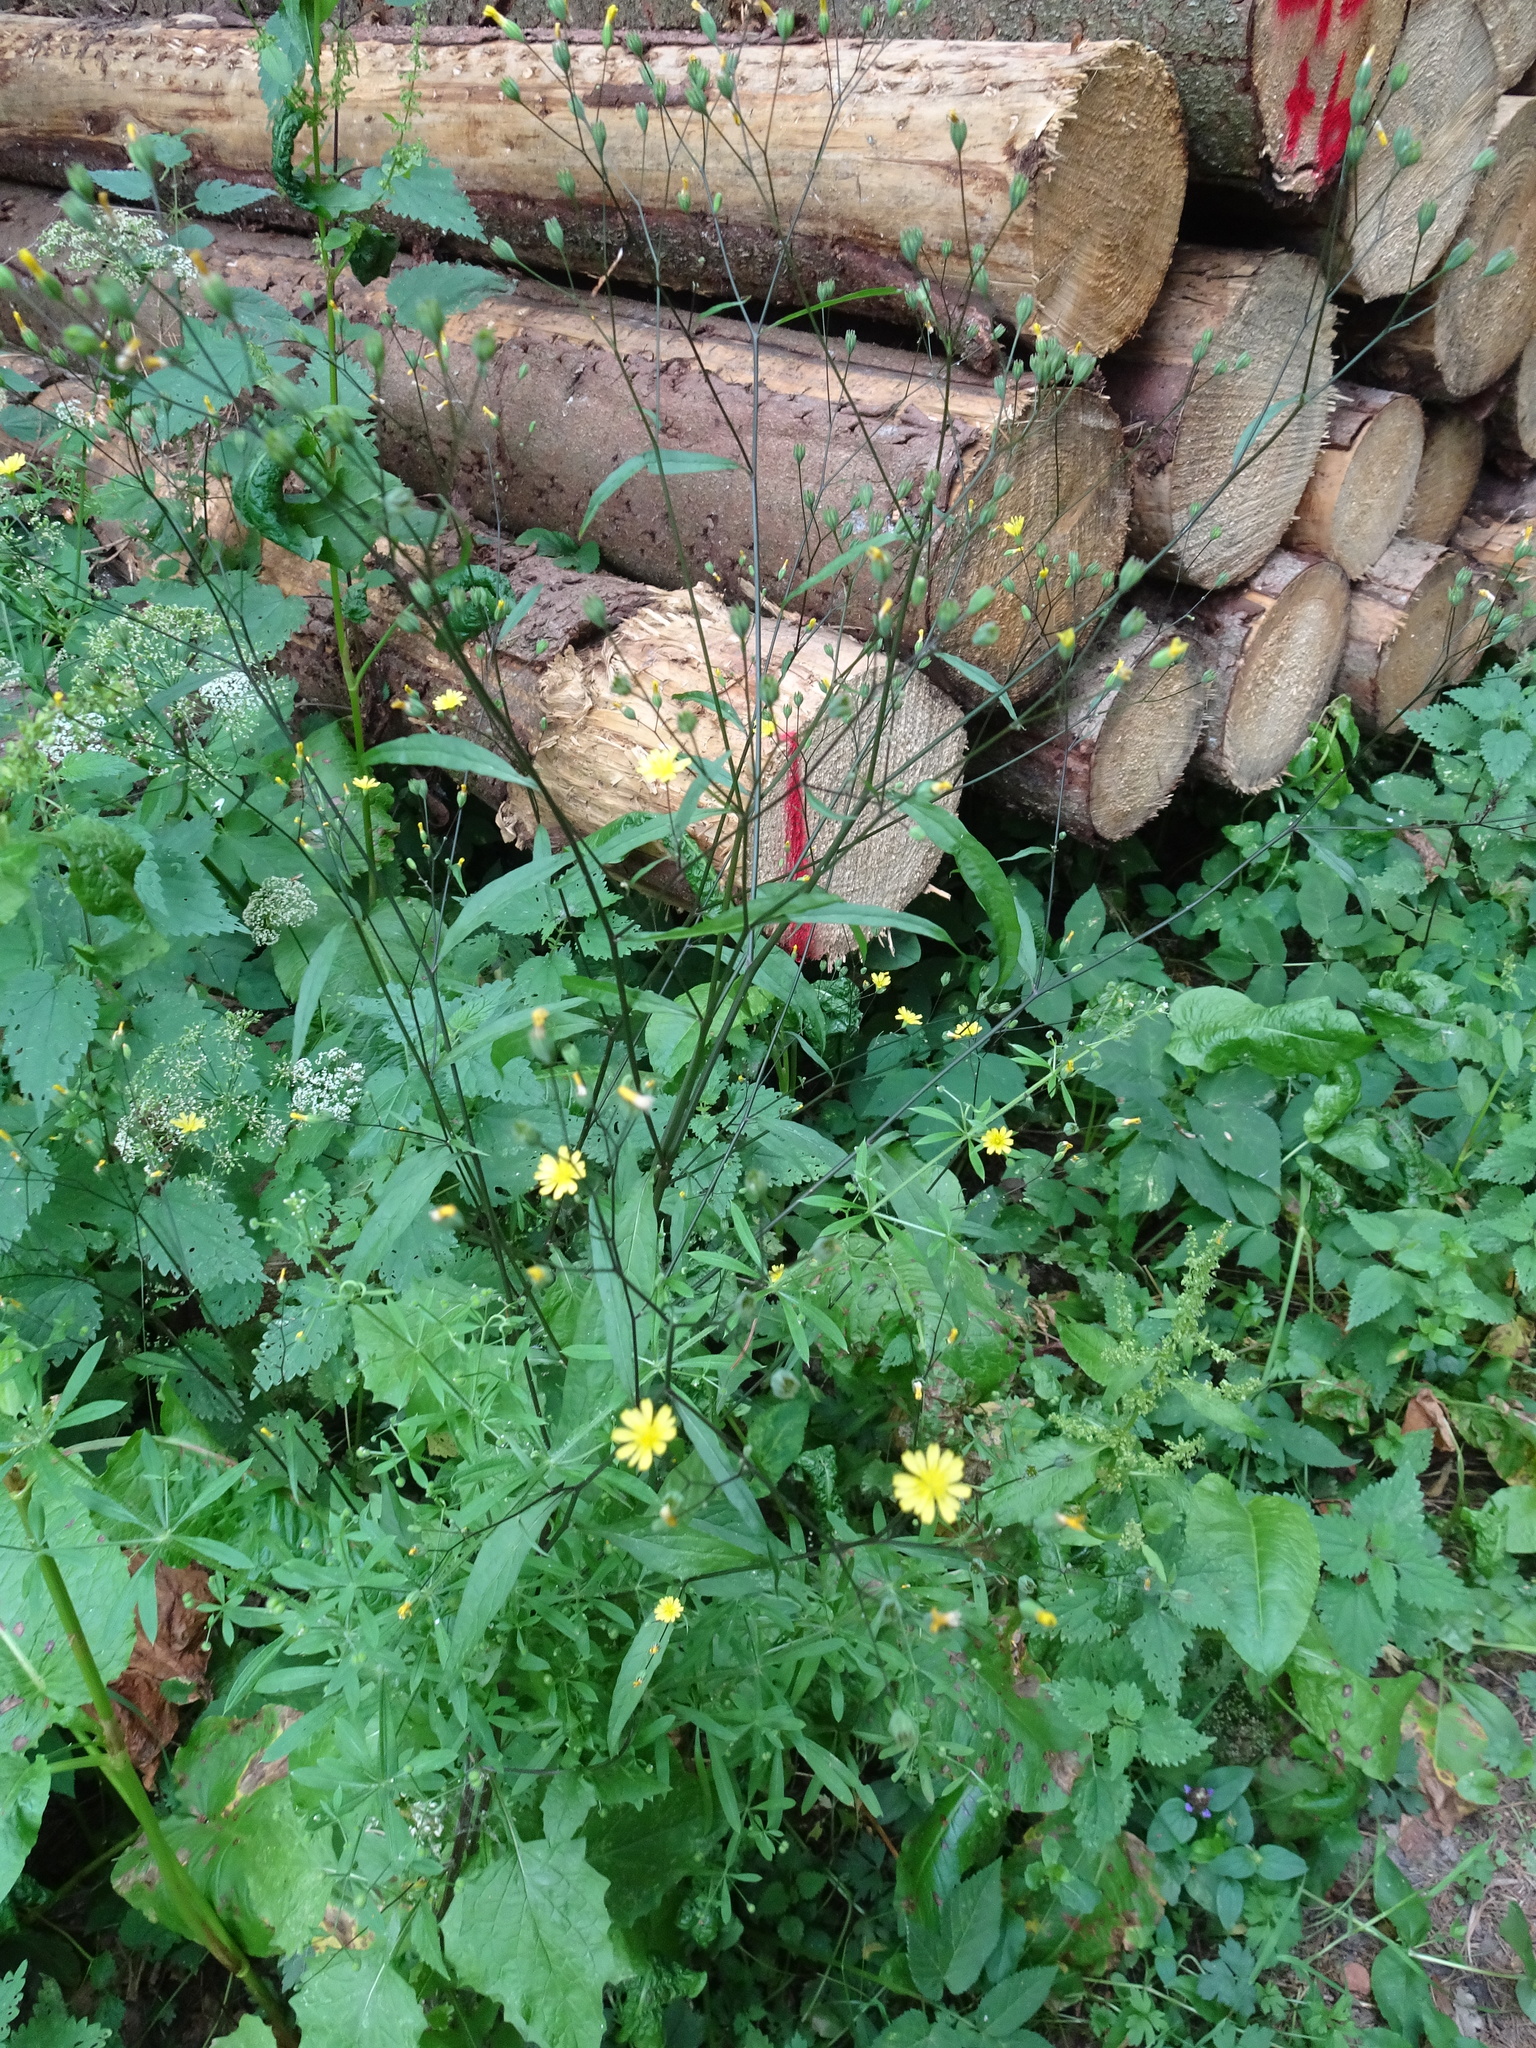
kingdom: Plantae
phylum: Tracheophyta
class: Magnoliopsida
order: Asterales
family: Asteraceae
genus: Lapsana
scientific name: Lapsana communis
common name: Nipplewort
